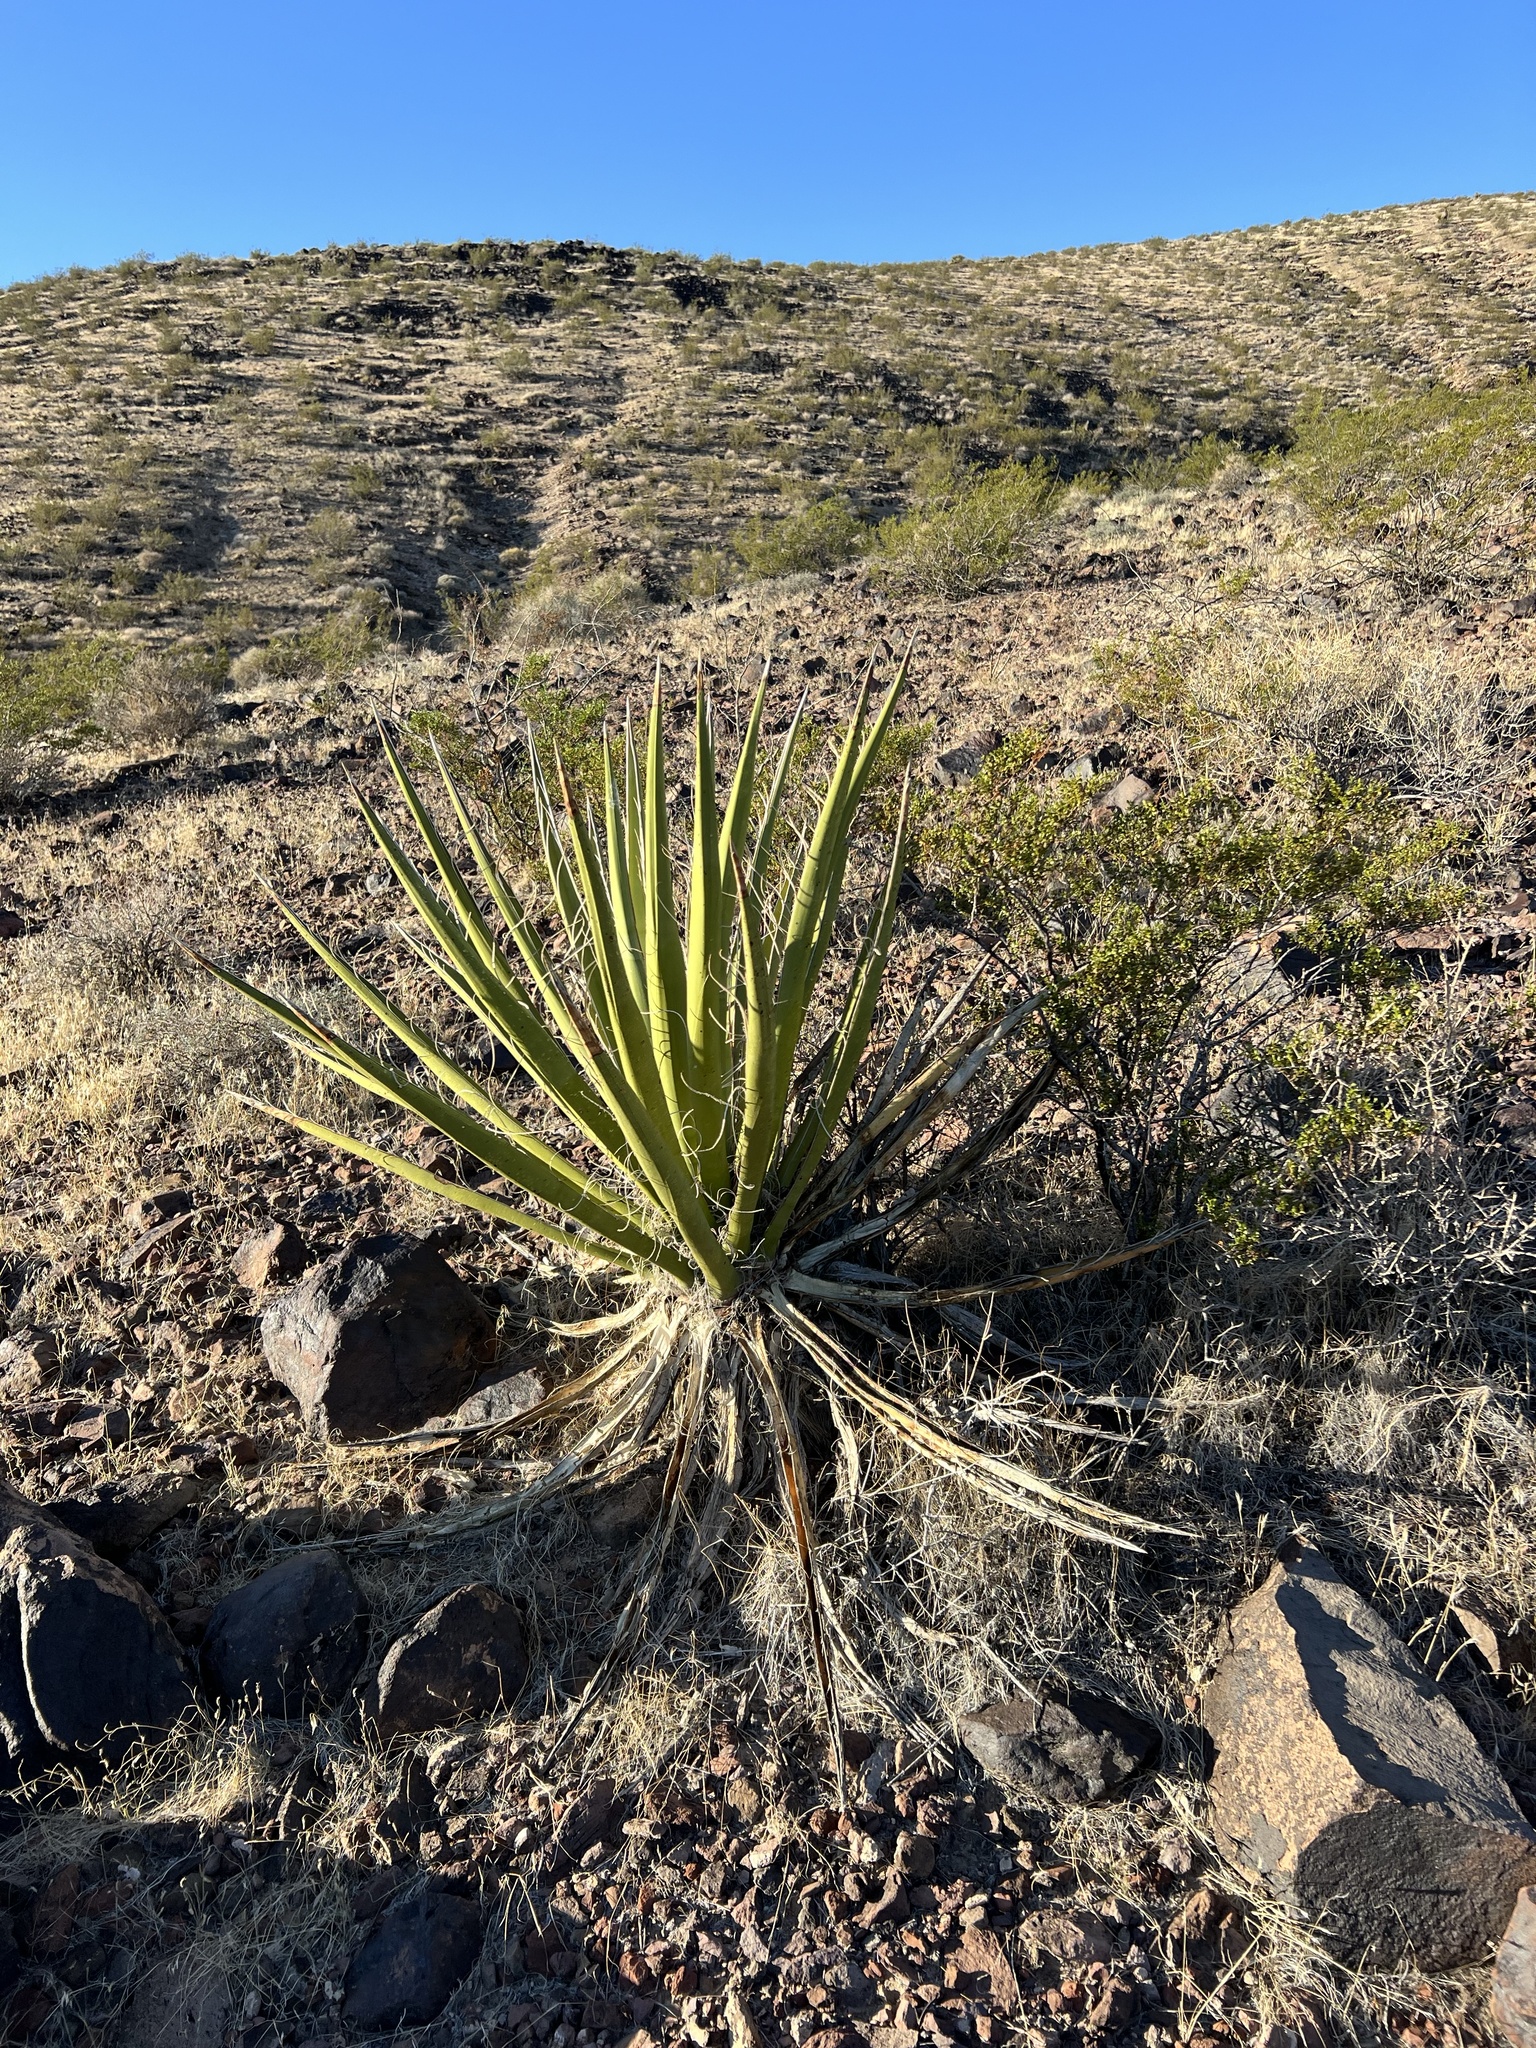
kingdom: Plantae
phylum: Tracheophyta
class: Liliopsida
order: Asparagales
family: Asparagaceae
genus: Yucca
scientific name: Yucca schidigera
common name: Mojave yucca
